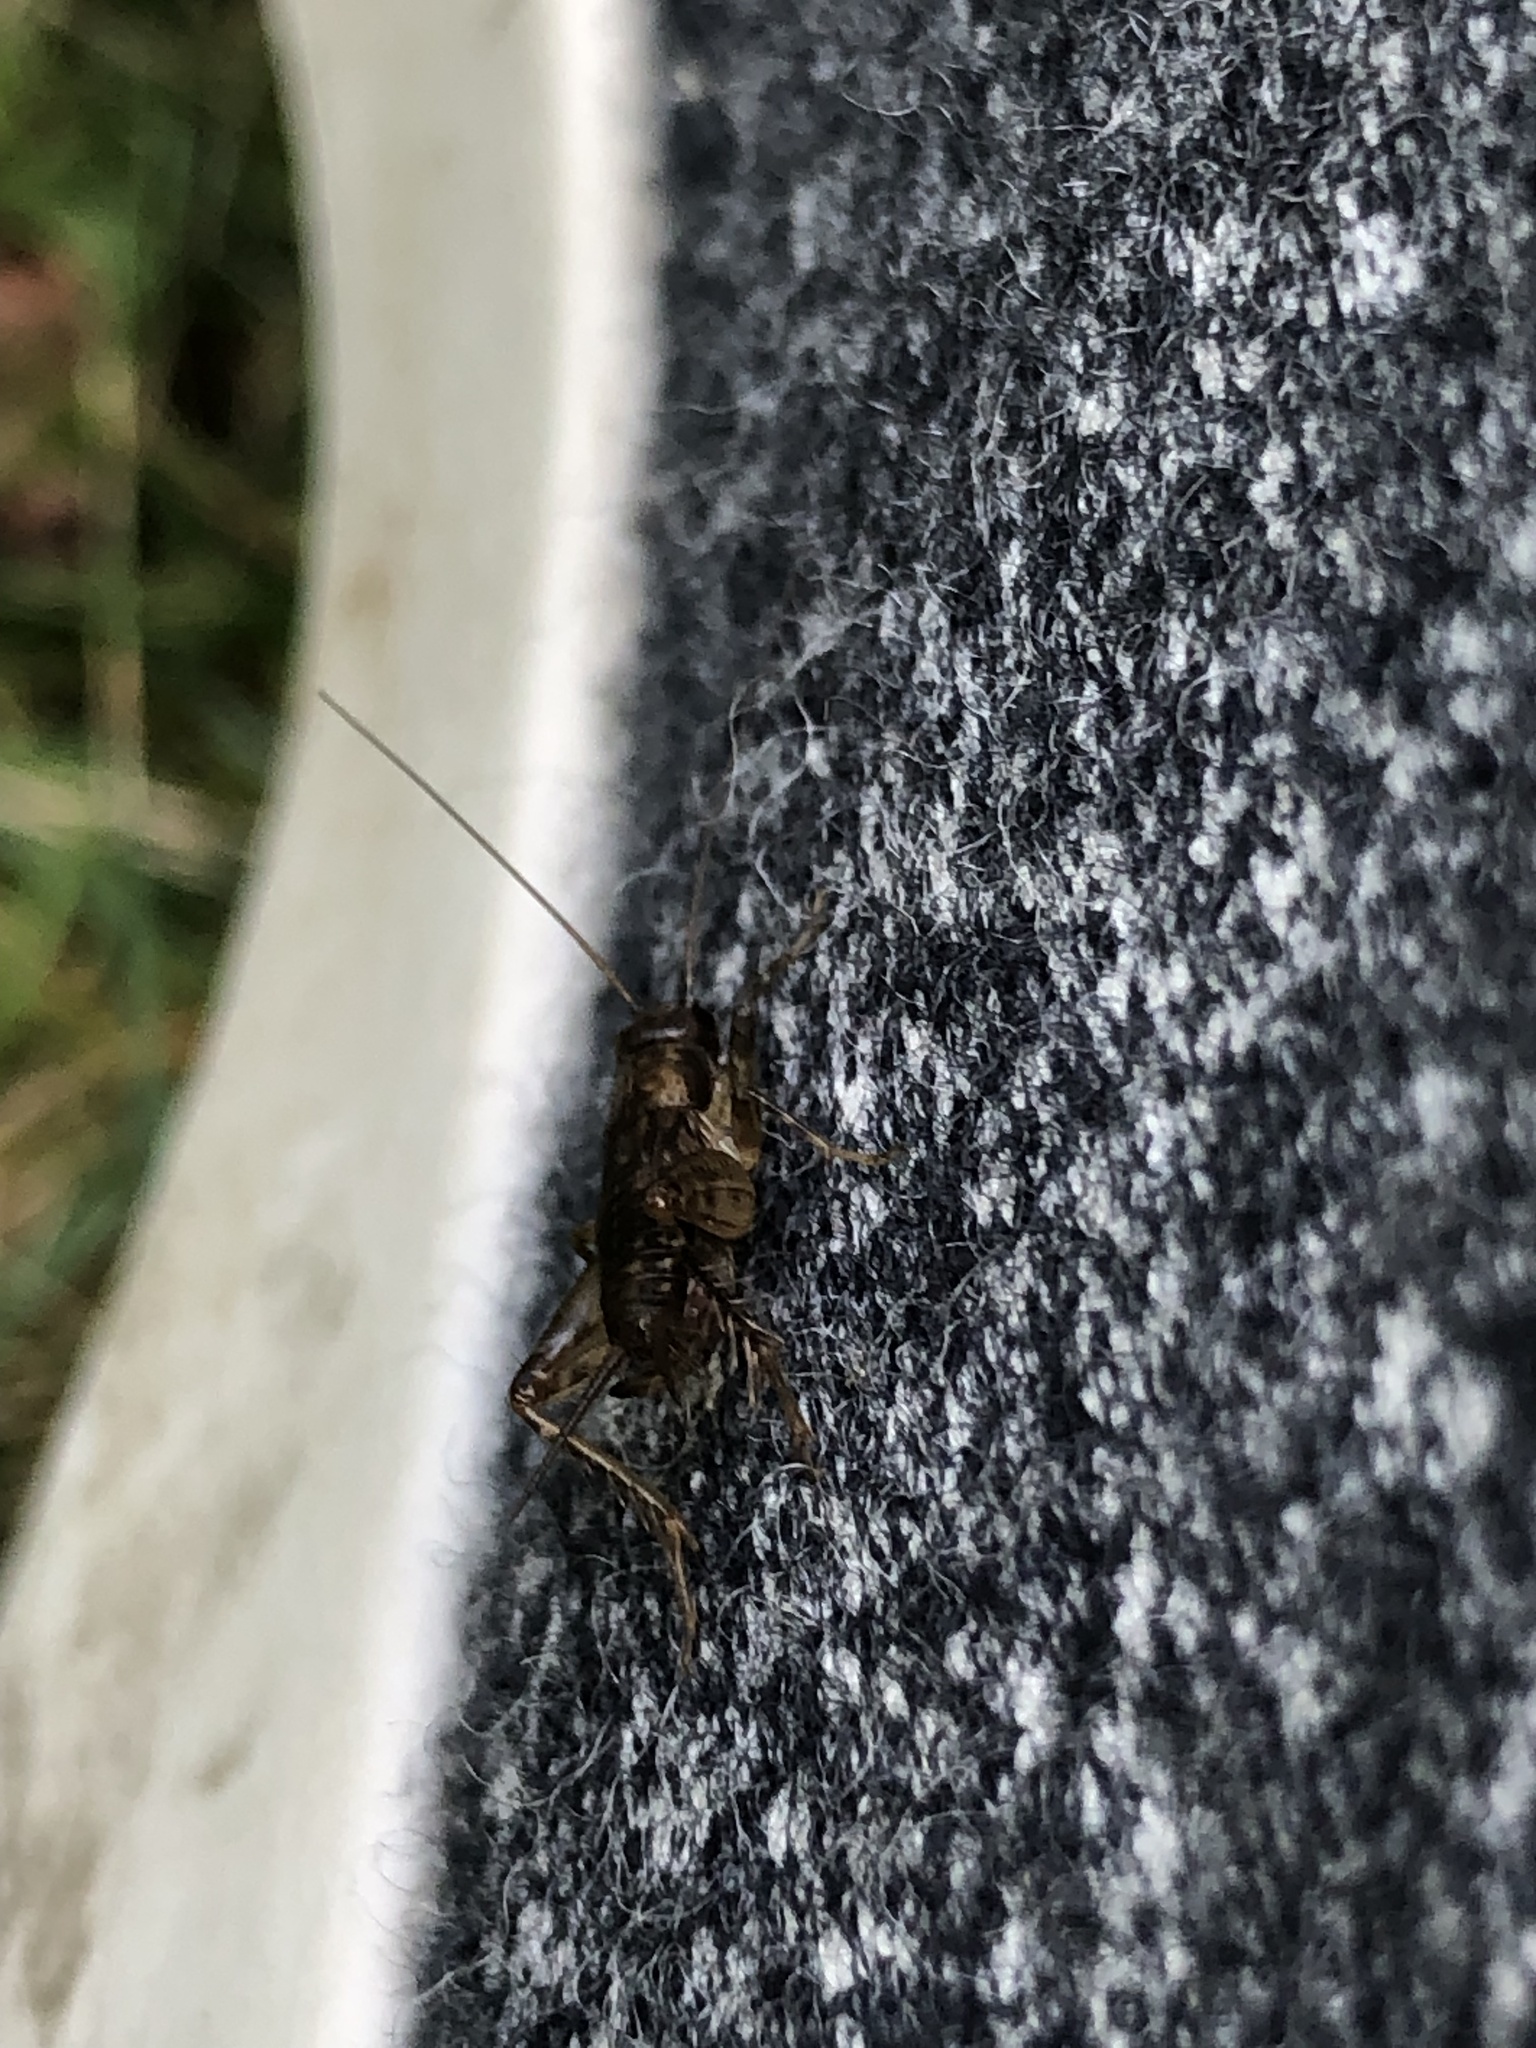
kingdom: Animalia
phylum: Arthropoda
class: Insecta
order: Orthoptera
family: Trigonidiidae
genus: Eunemobius
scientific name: Eunemobius carolinus
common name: Carolina ground cricket
